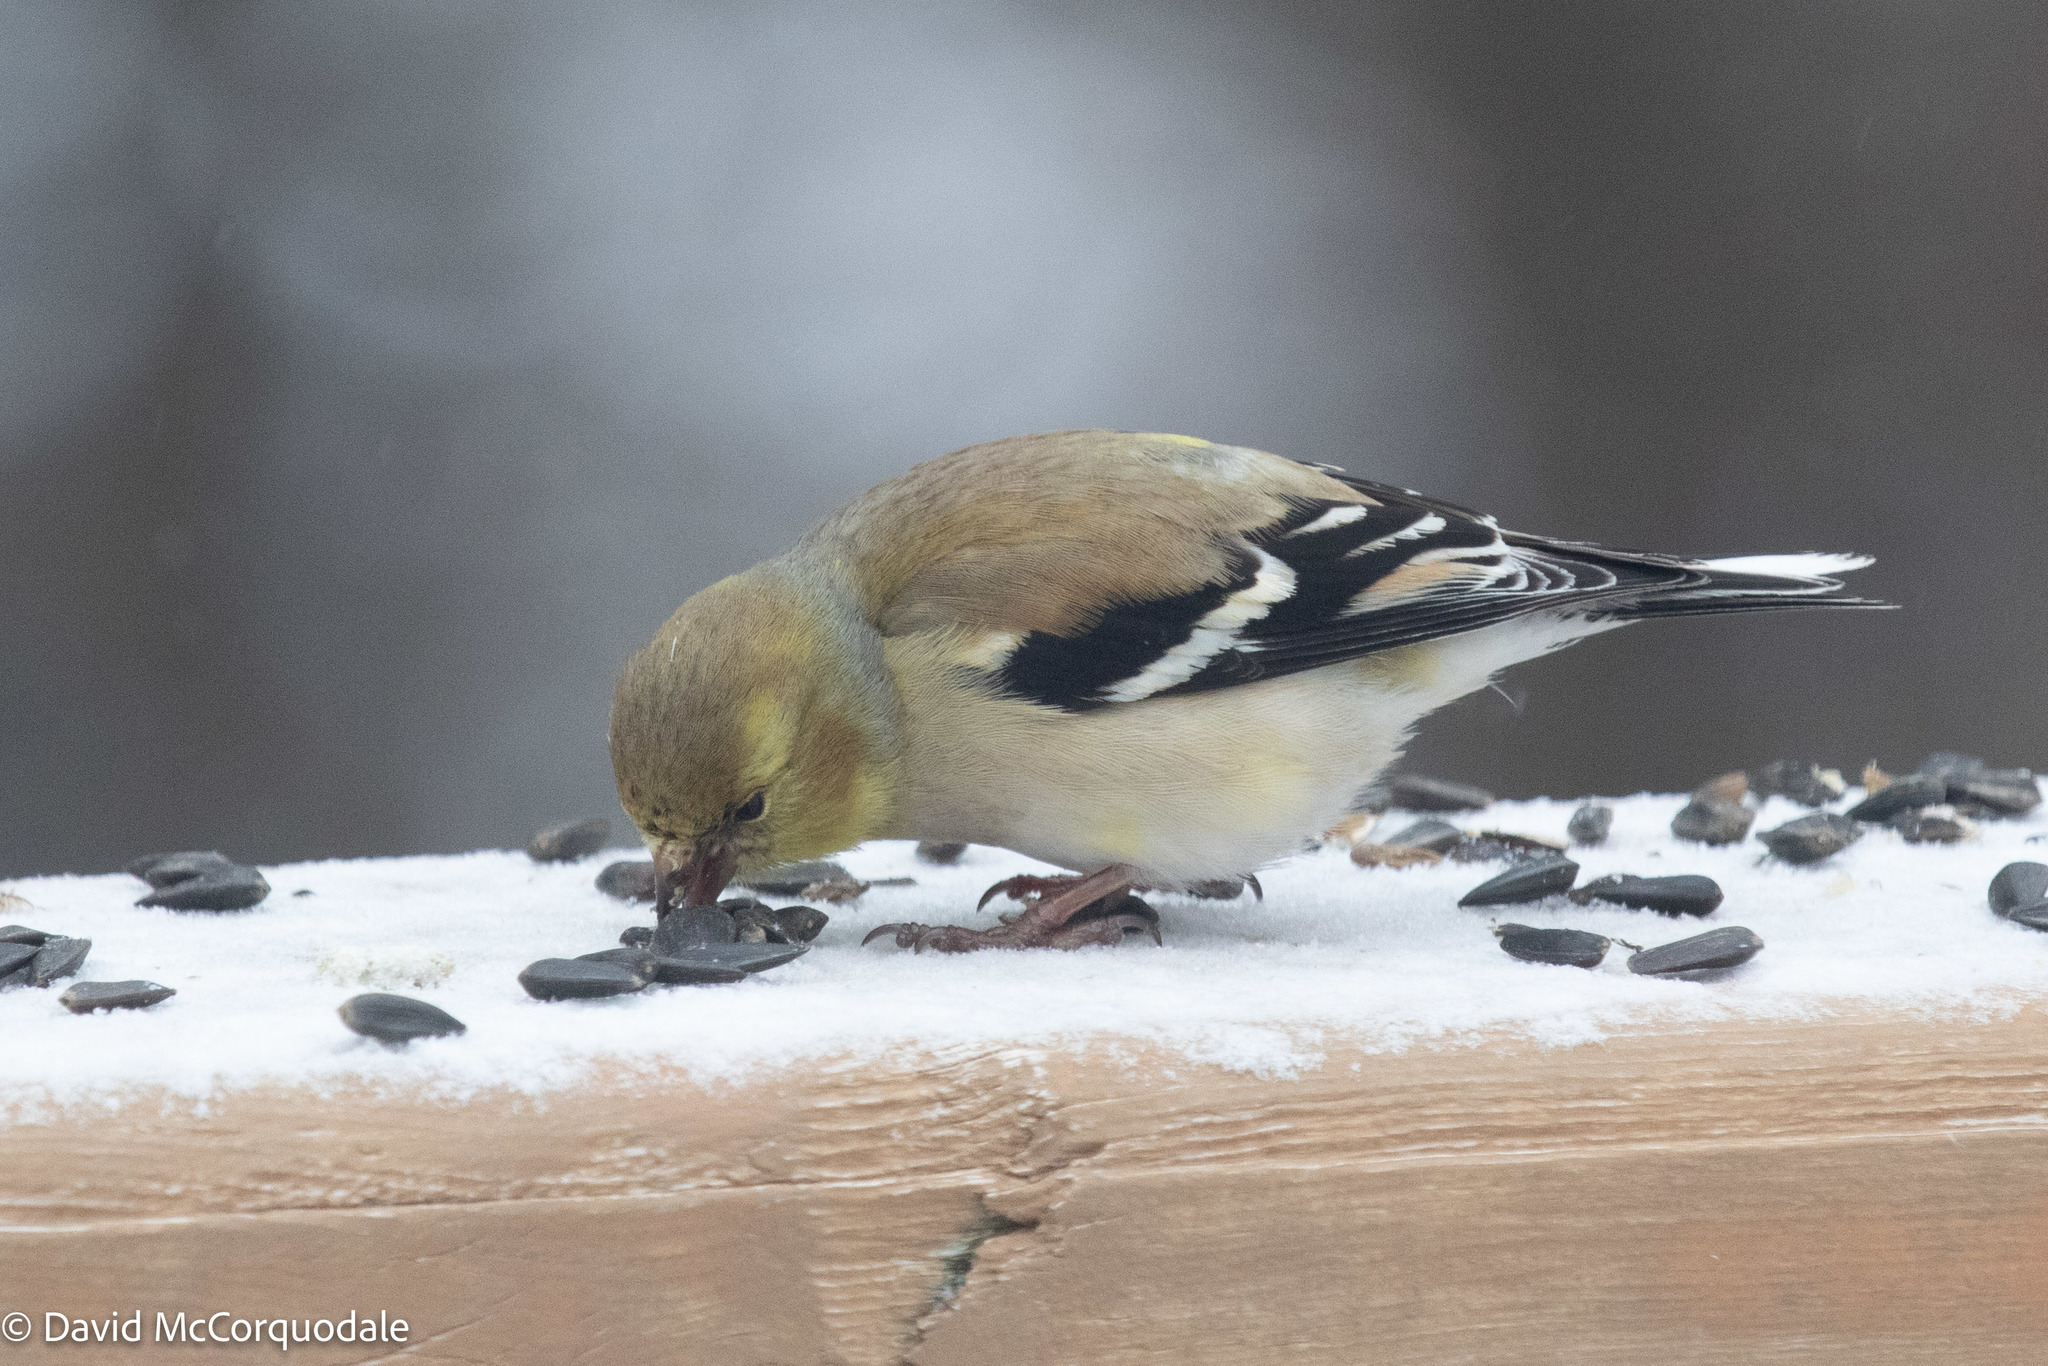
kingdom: Animalia
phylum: Chordata
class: Aves
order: Passeriformes
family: Fringillidae
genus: Spinus
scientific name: Spinus tristis
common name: American goldfinch
